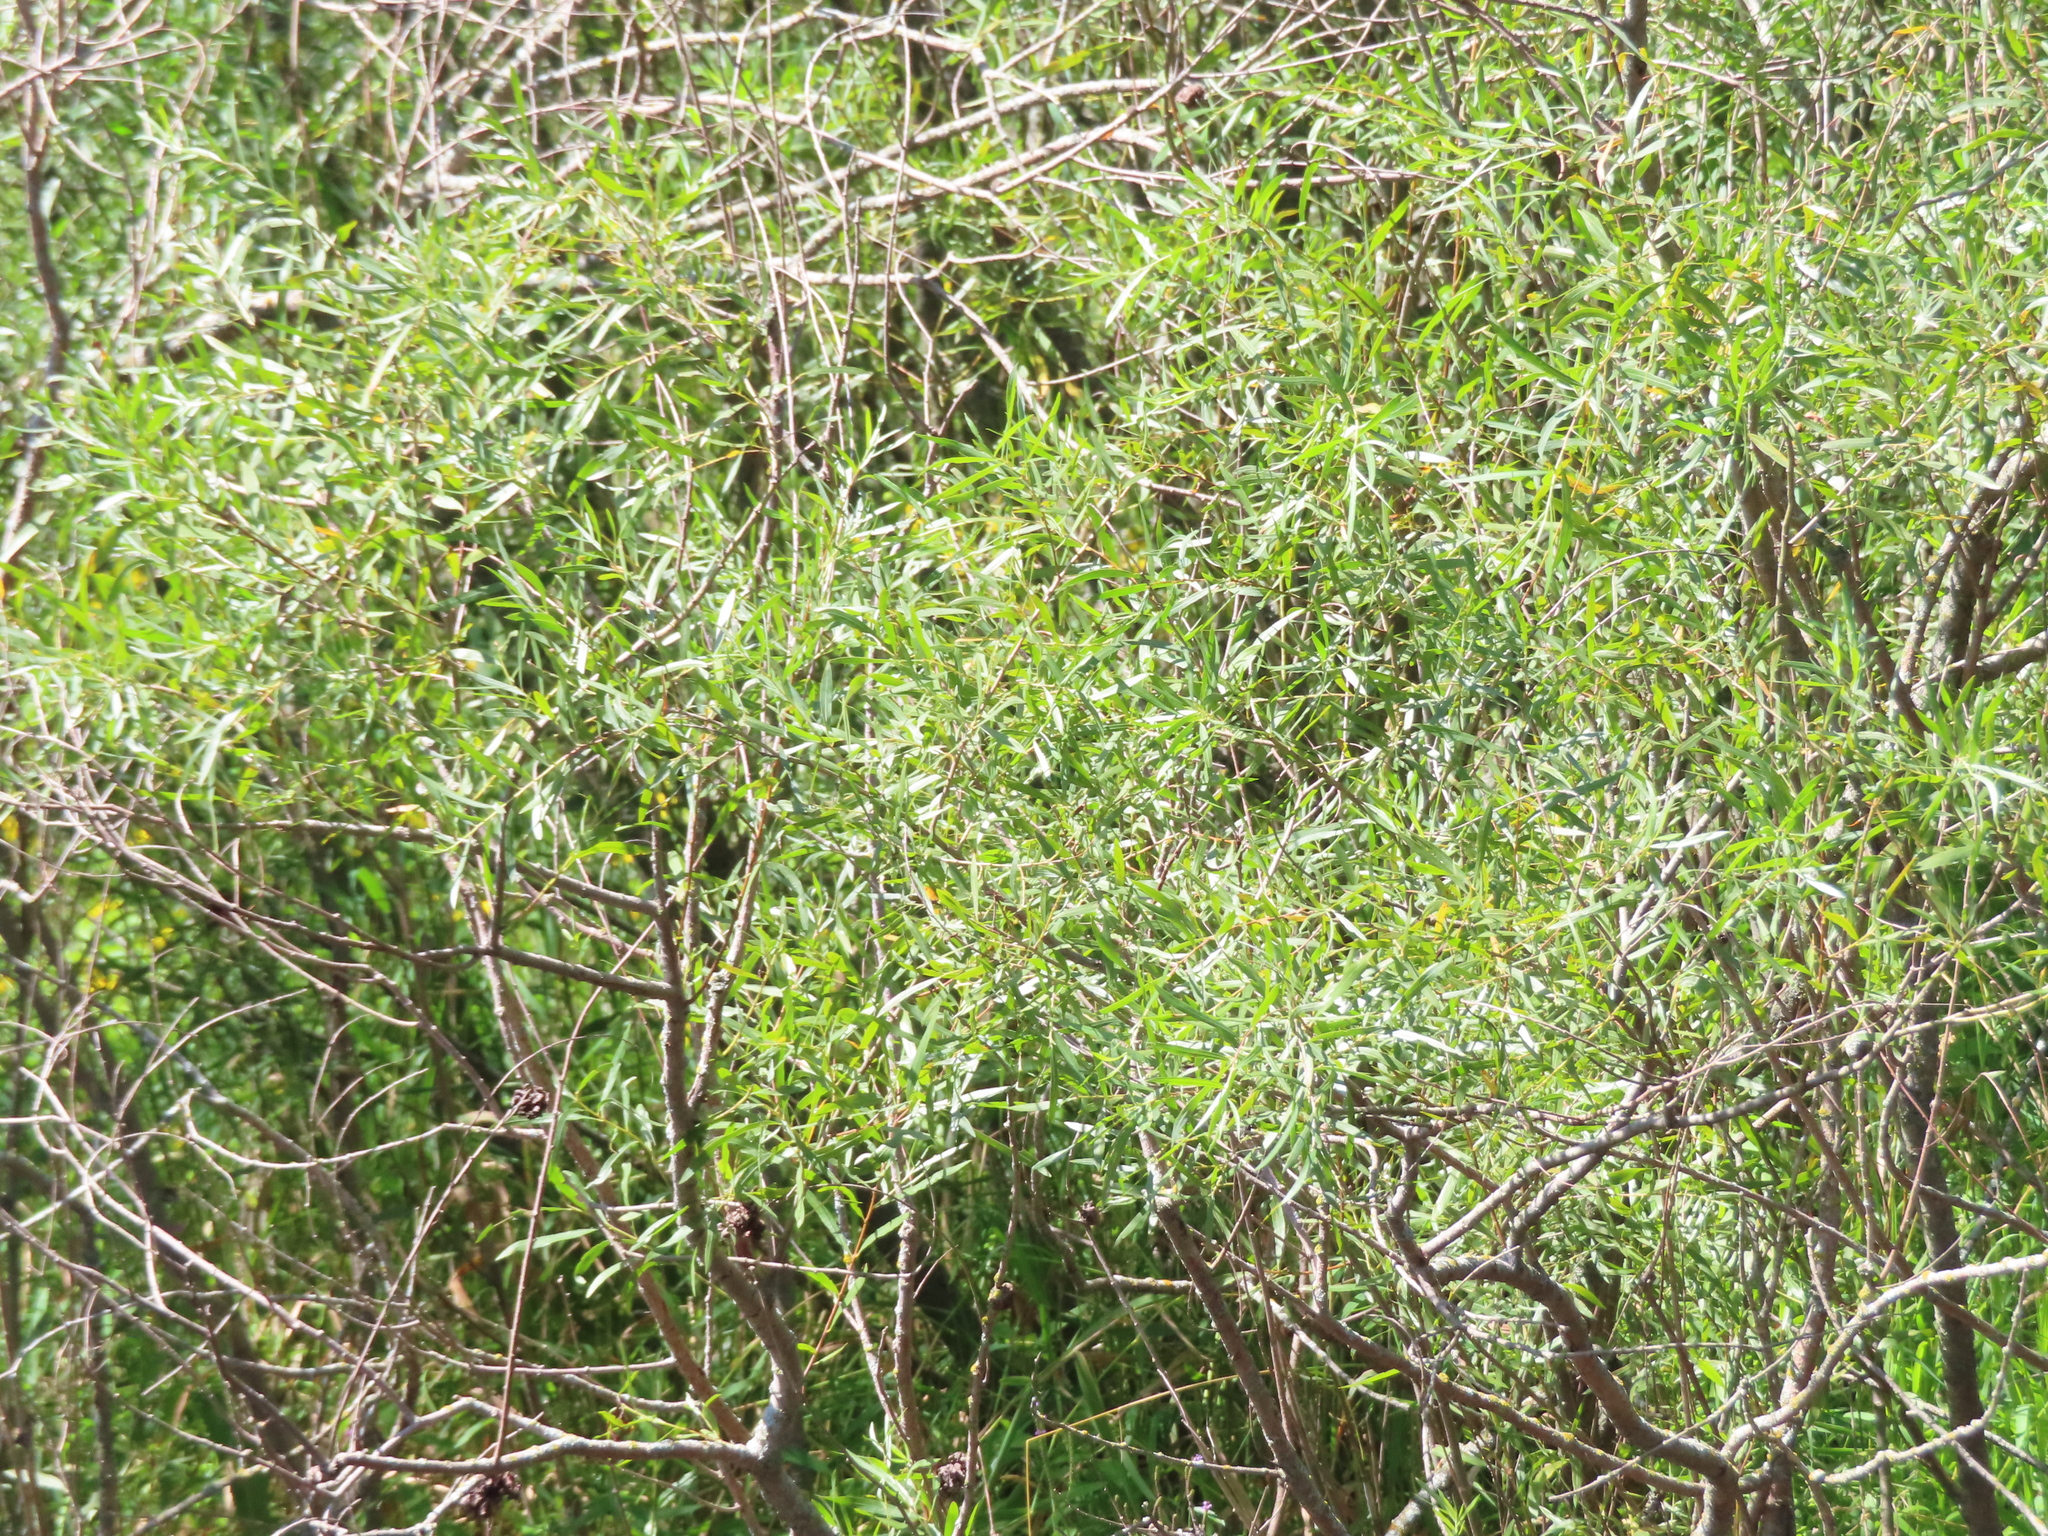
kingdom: Plantae
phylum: Tracheophyta
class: Magnoliopsida
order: Malpighiales
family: Salicaceae
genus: Salix
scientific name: Salix interior
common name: Sandbar willow
